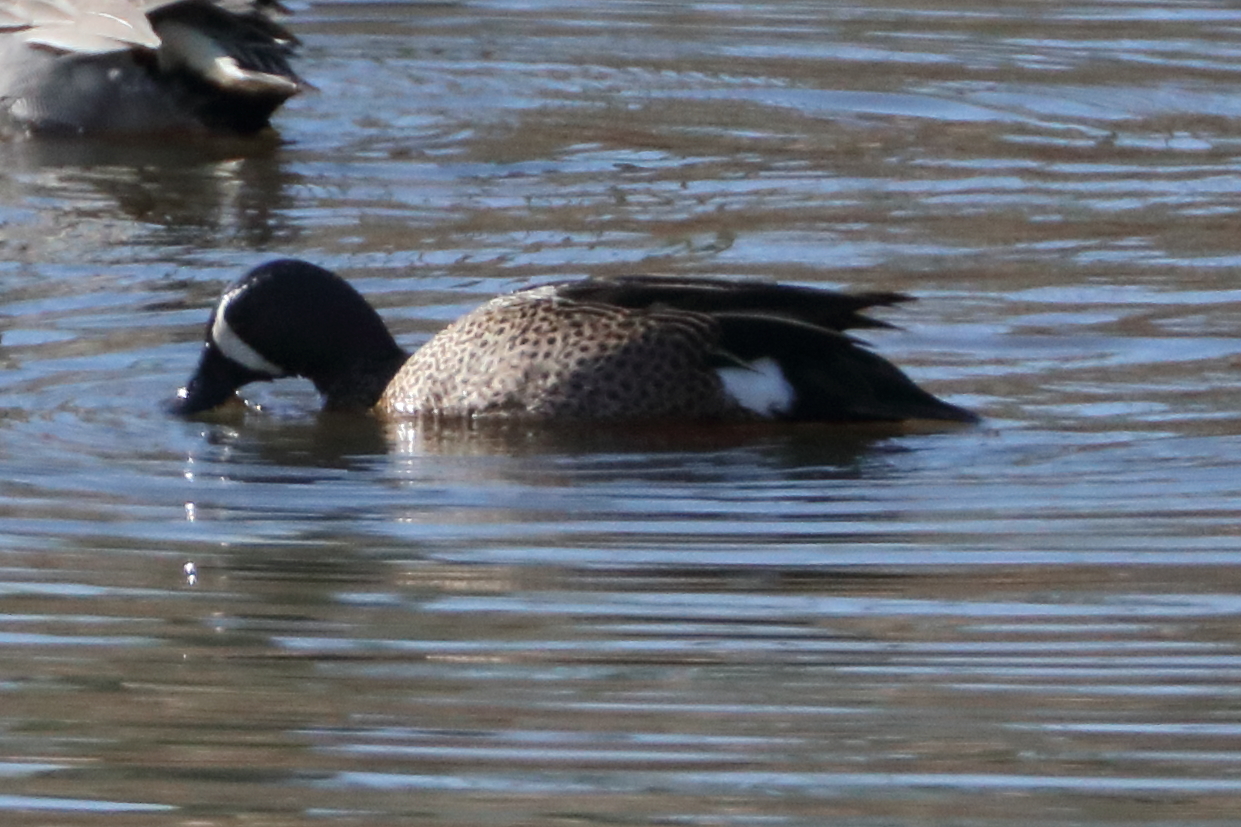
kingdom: Animalia
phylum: Chordata
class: Aves
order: Anseriformes
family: Anatidae
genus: Spatula
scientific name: Spatula discors
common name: Blue-winged teal
